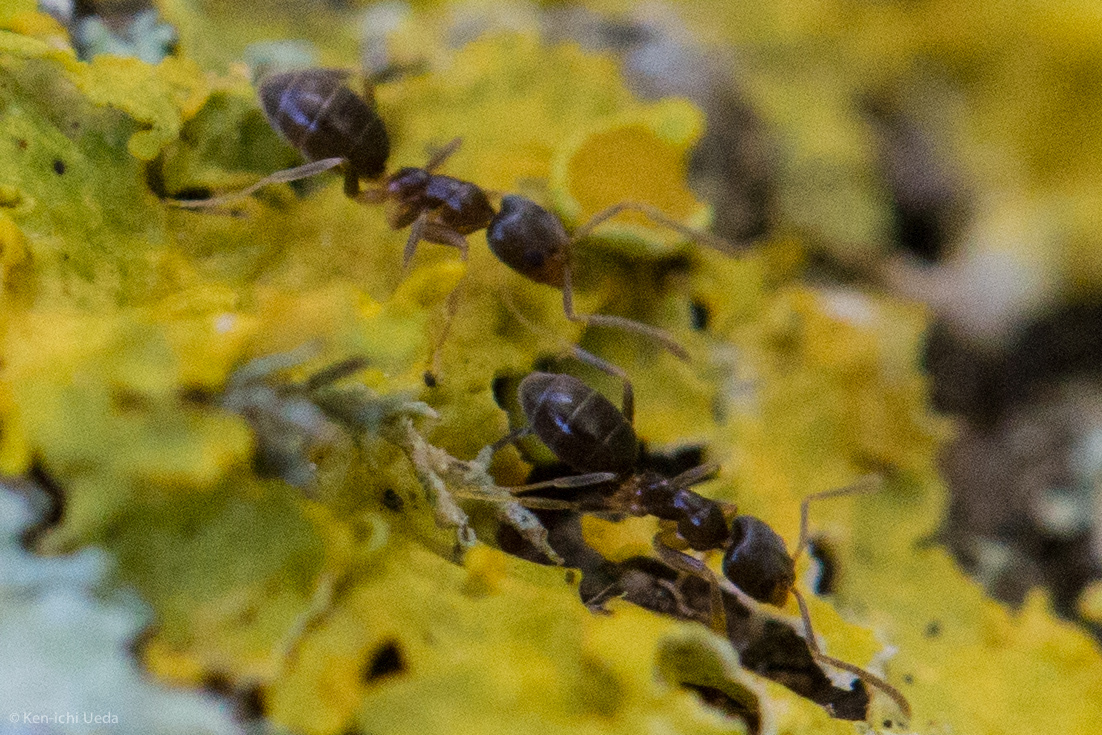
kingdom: Animalia
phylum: Arthropoda
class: Insecta
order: Hymenoptera
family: Formicidae
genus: Doleromyrma
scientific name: Doleromyrma darwiniana
